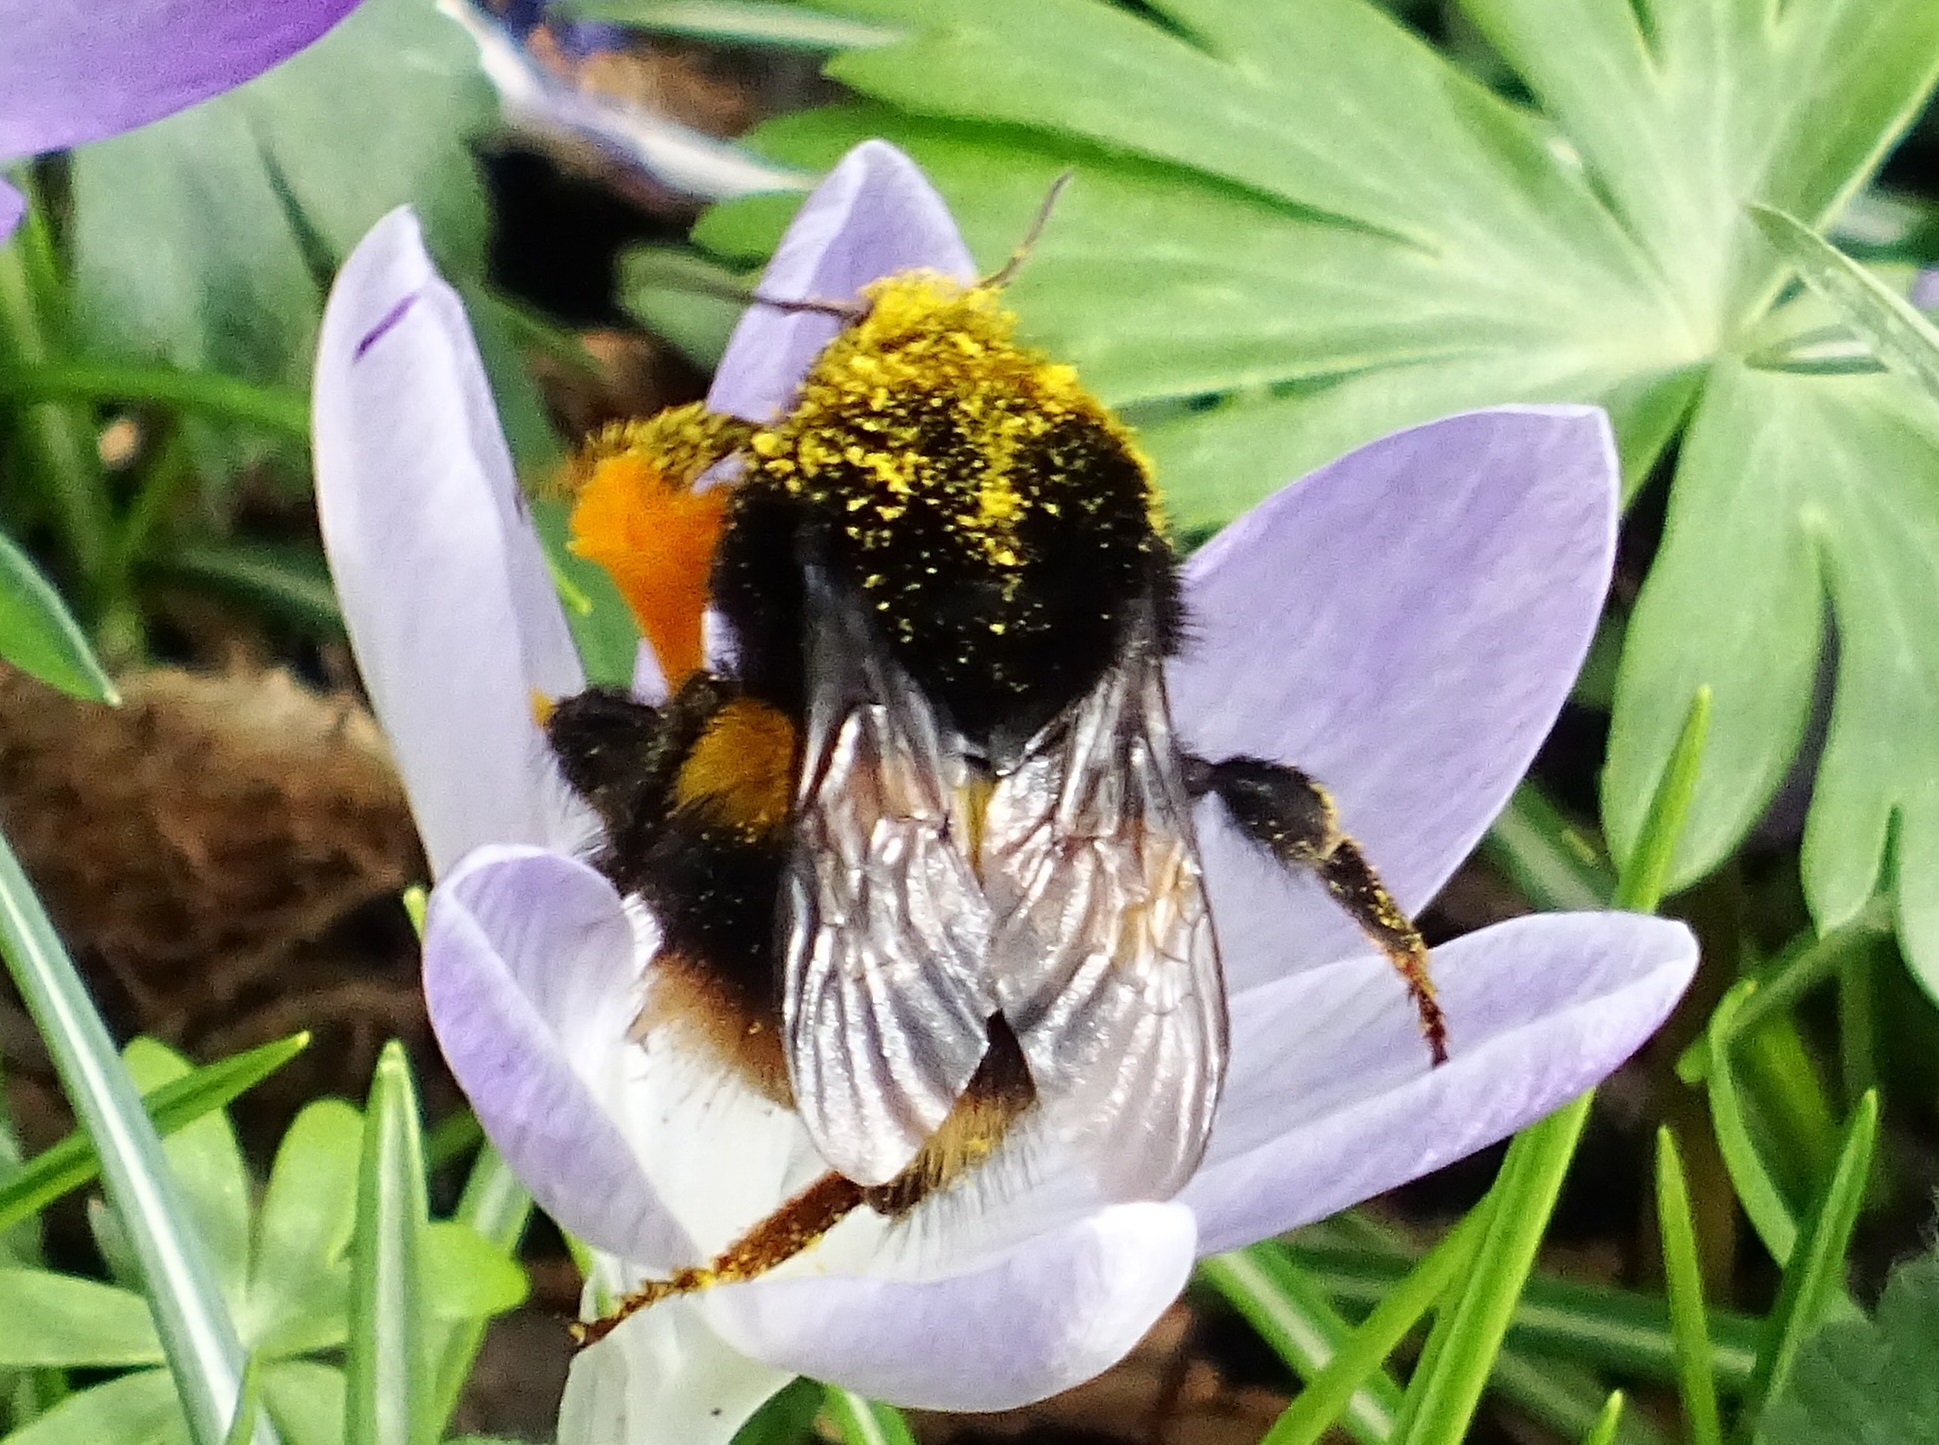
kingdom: Animalia
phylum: Arthropoda
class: Insecta
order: Hymenoptera
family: Apidae
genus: Bombus
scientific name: Bombus terrestris
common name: Buff-tailed bumblebee
